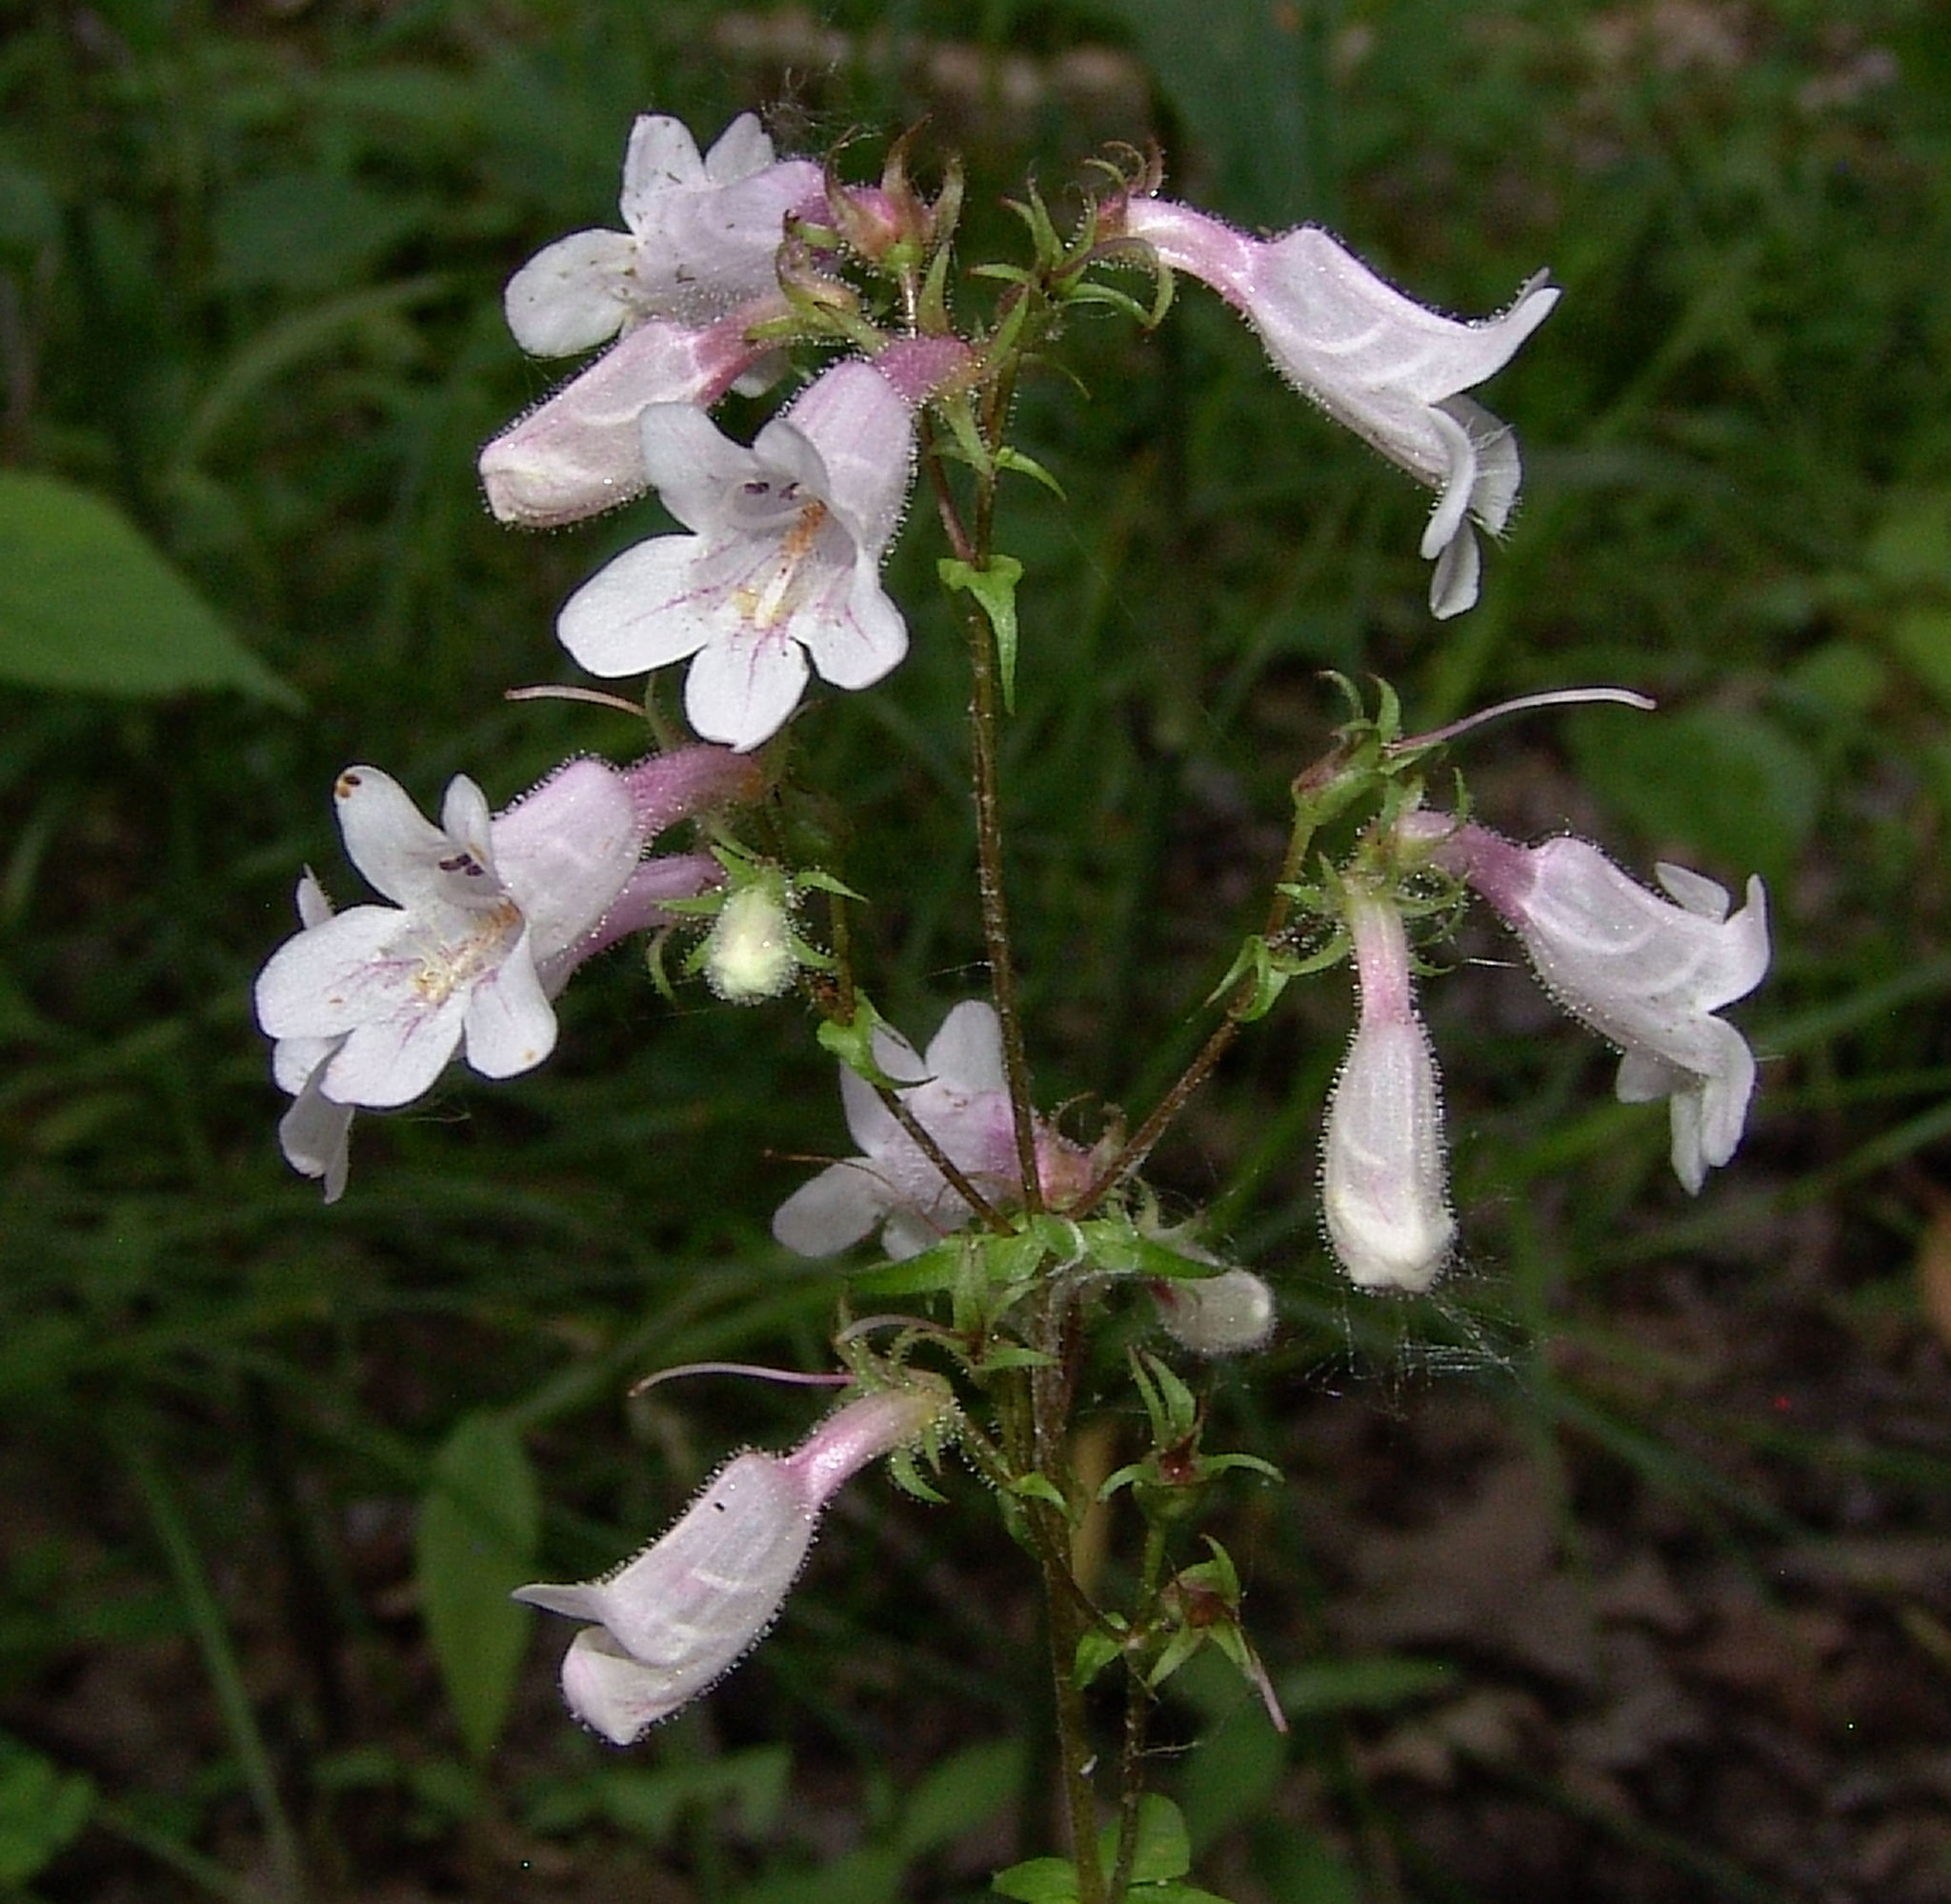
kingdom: Plantae
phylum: Tracheophyta
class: Magnoliopsida
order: Lamiales
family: Plantaginaceae
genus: Penstemon
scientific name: Penstemon digitalis
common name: Foxglove beardtongue
